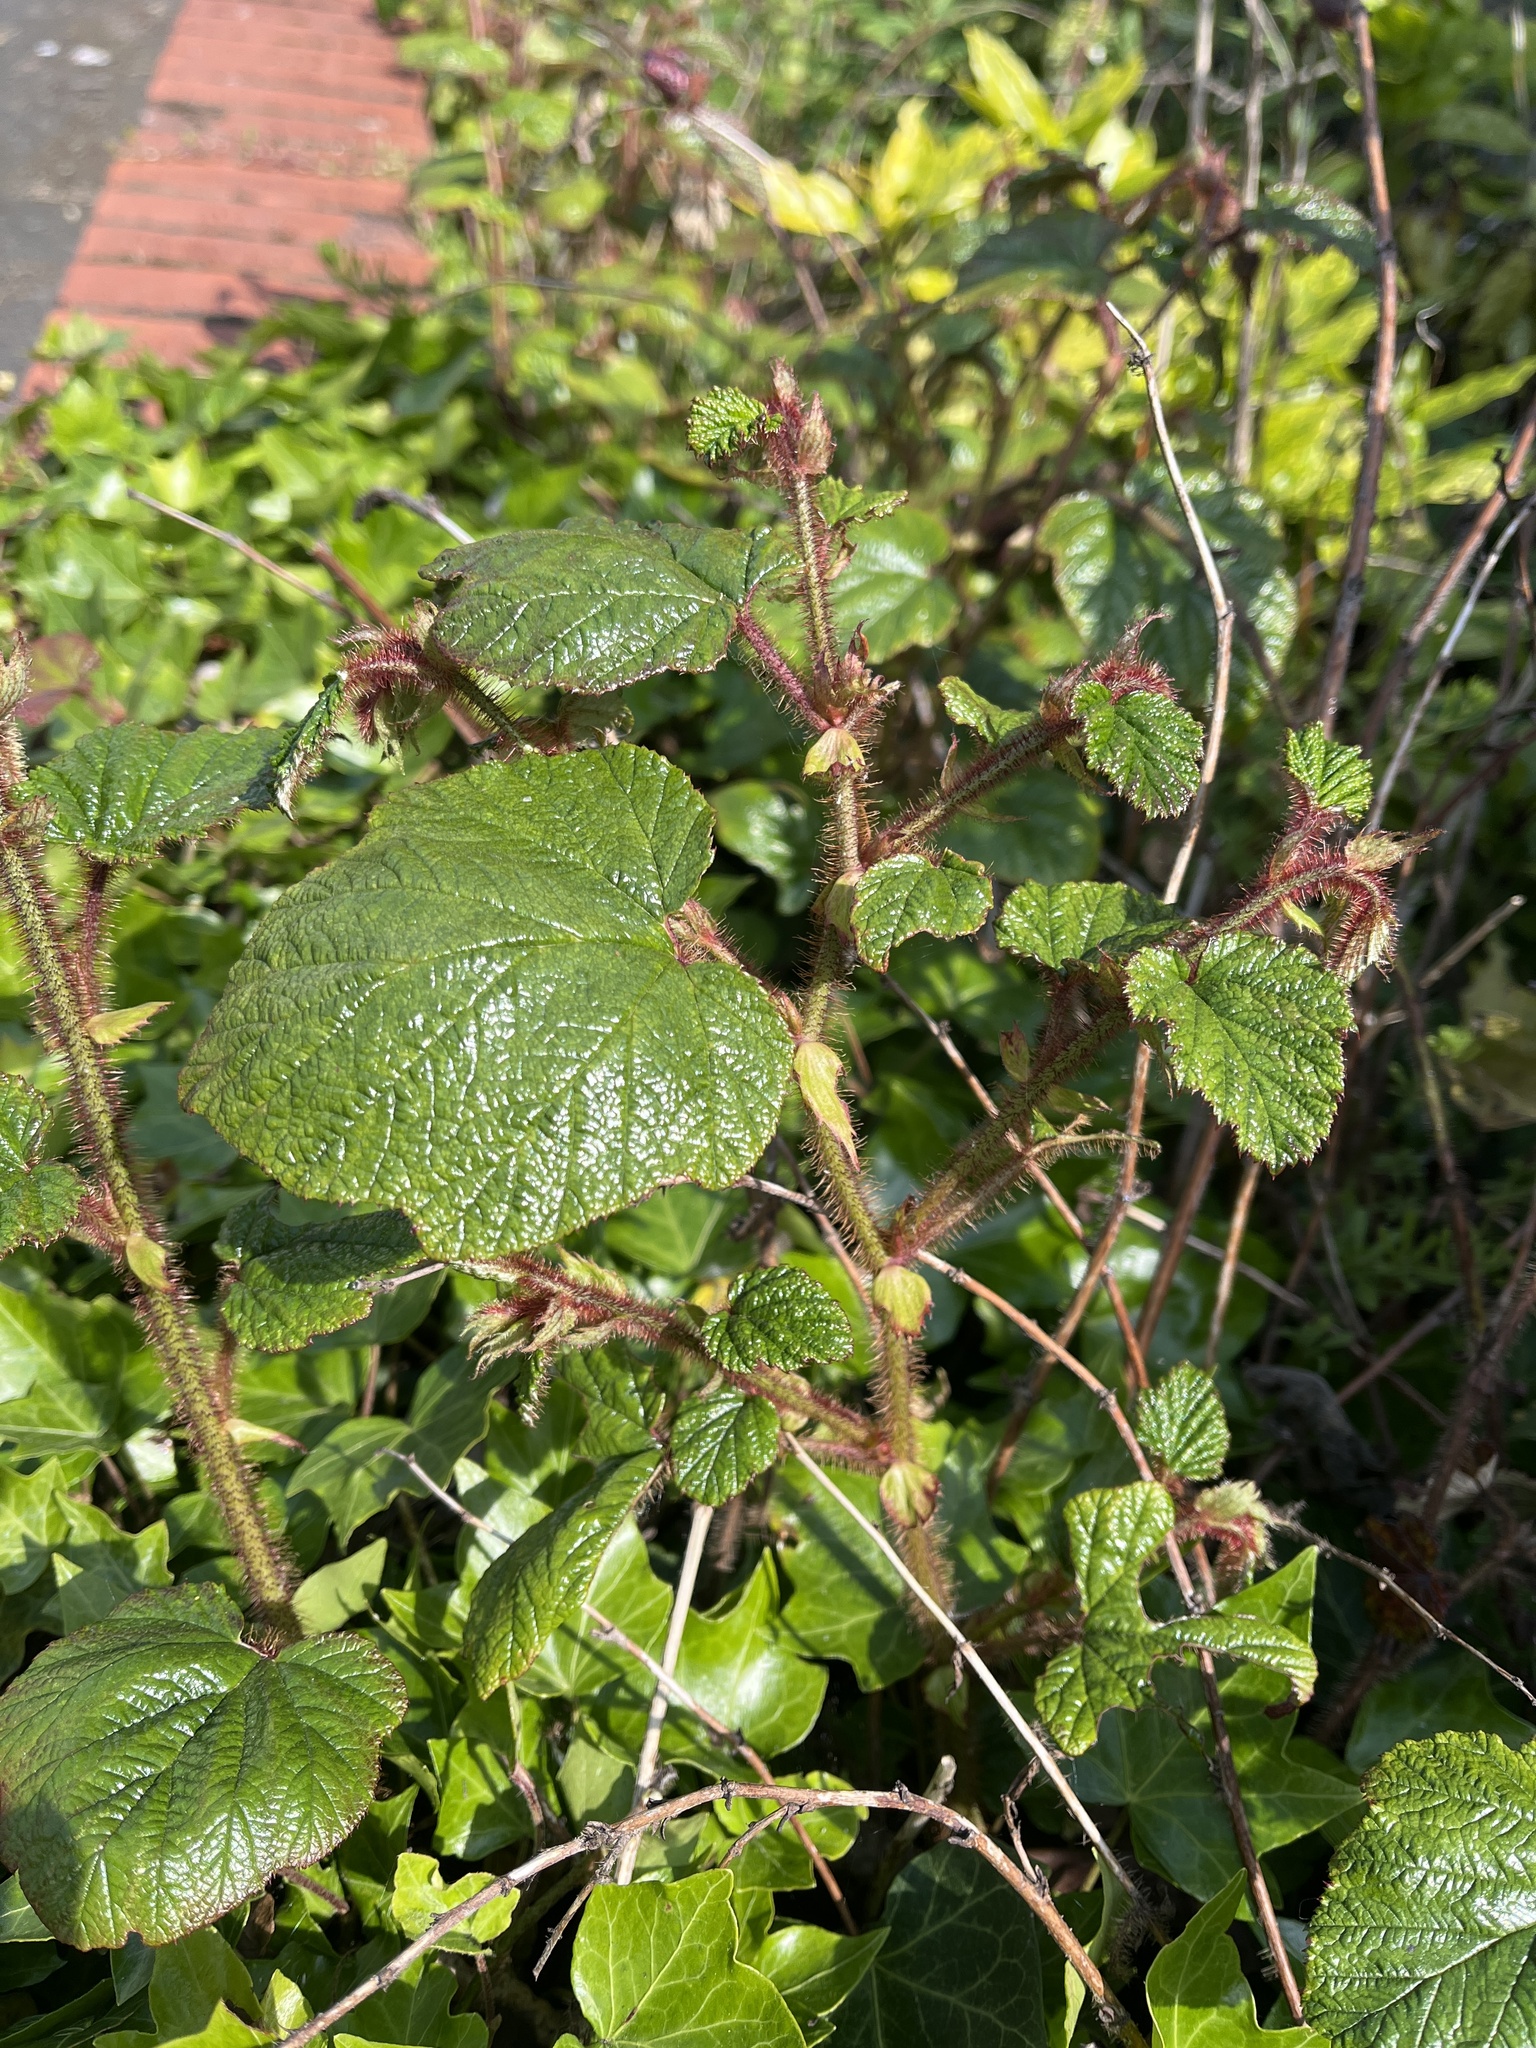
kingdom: Plantae
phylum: Tracheophyta
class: Magnoliopsida
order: Rosales
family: Rosaceae
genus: Rubus
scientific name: Rubus tricolor
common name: Chinese bramble
